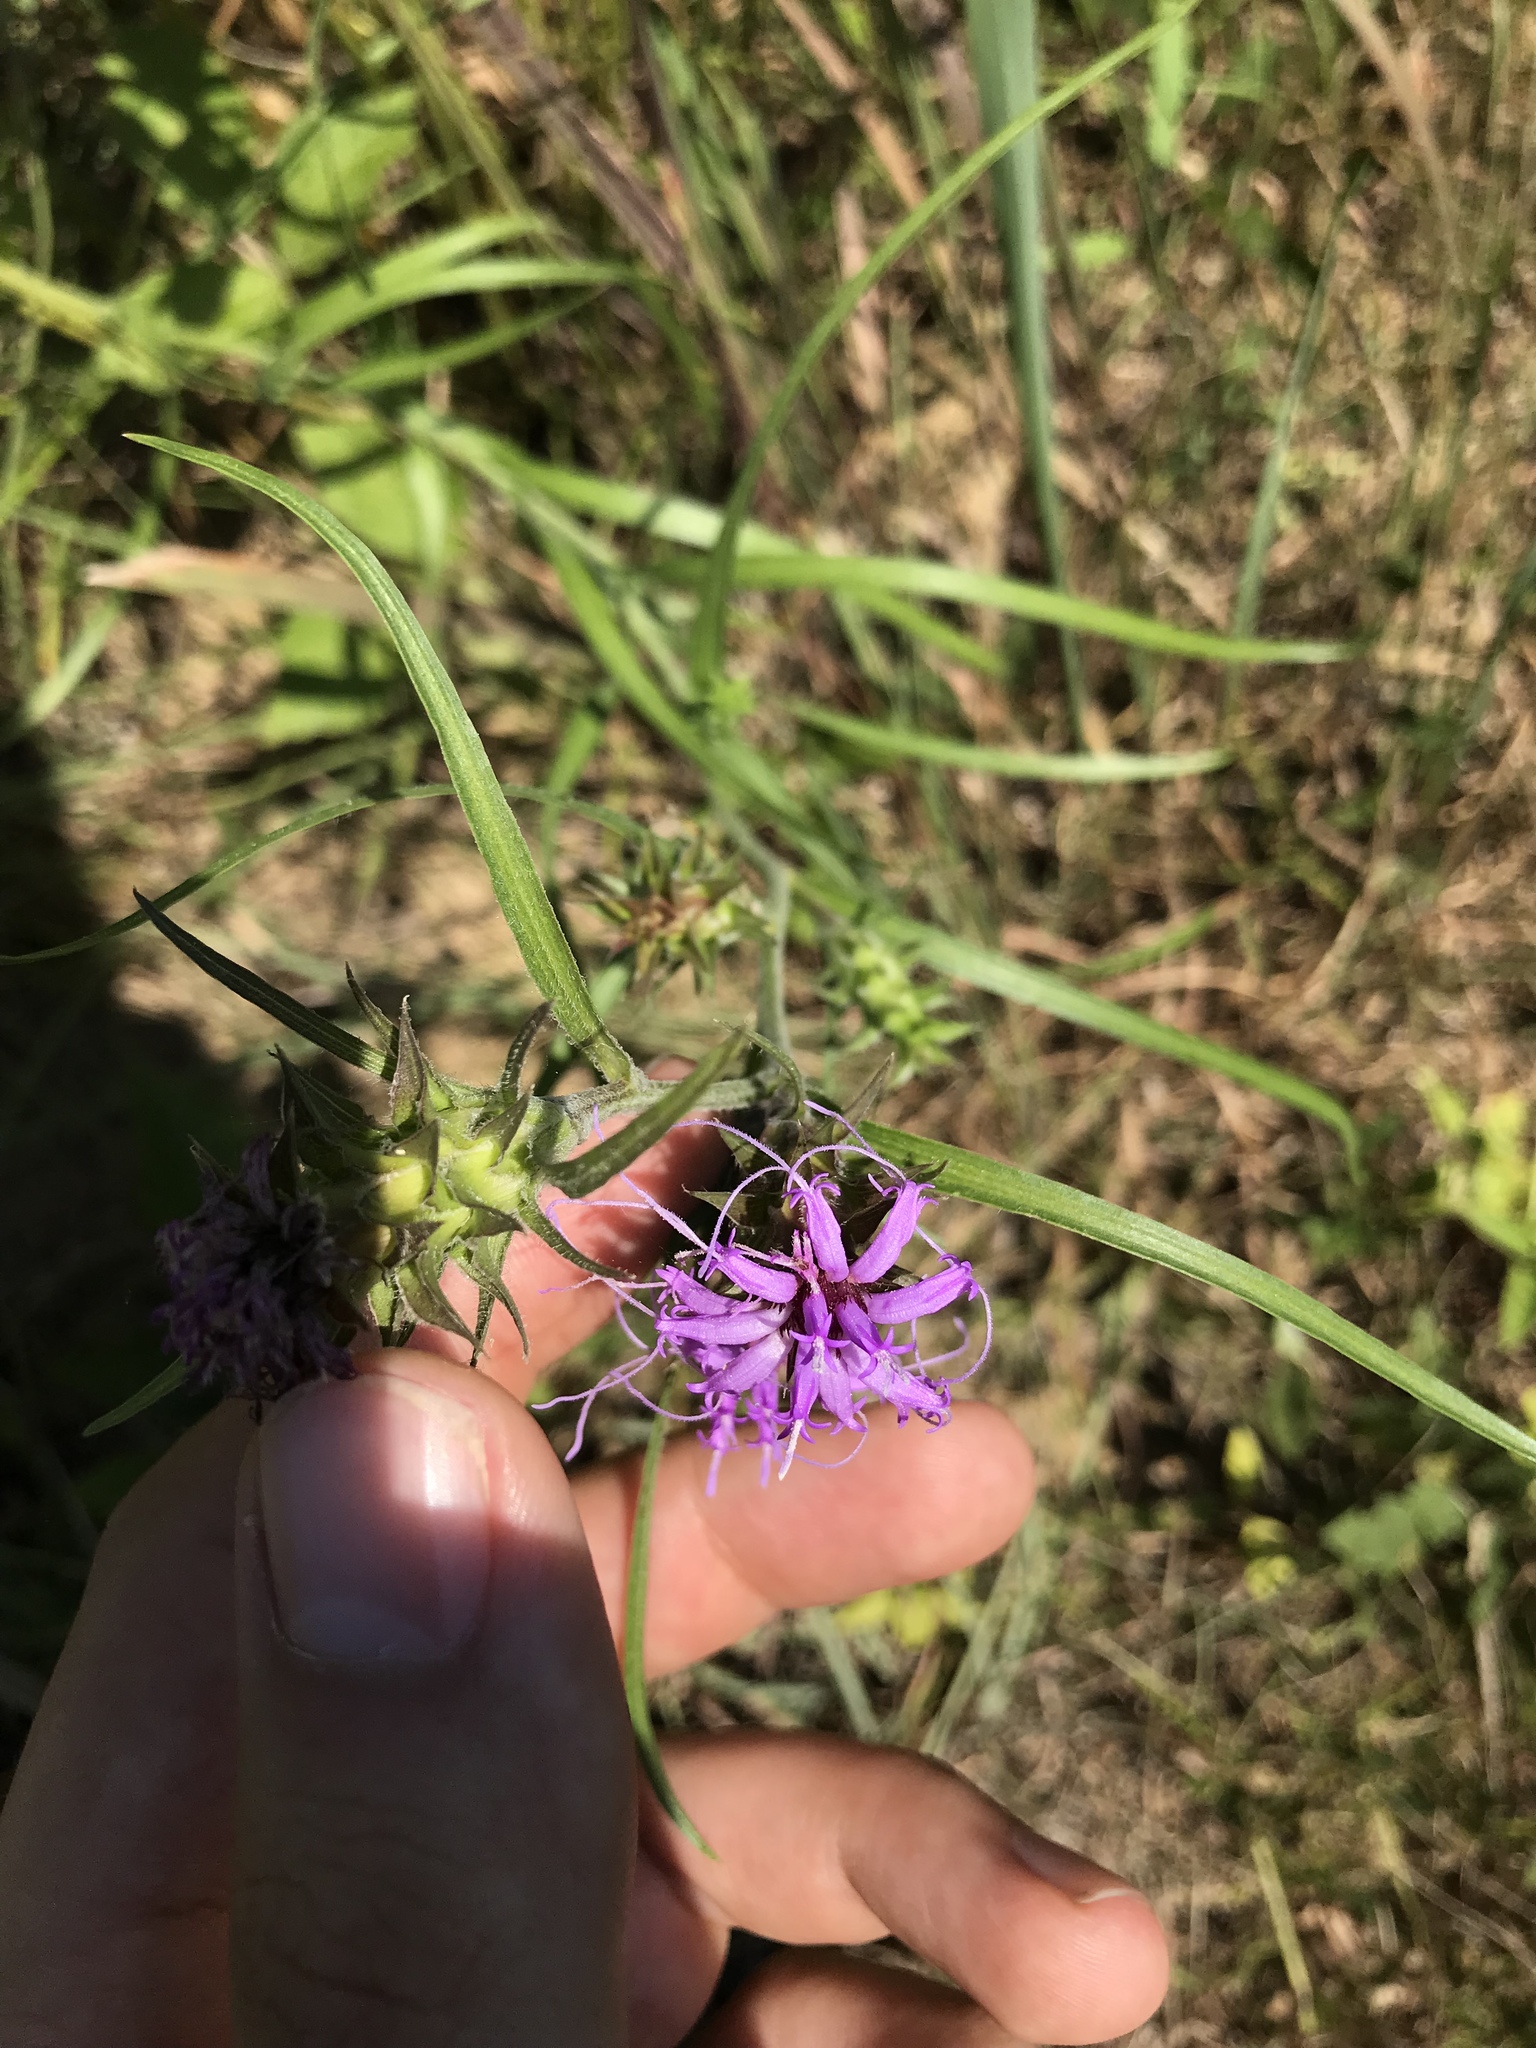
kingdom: Plantae
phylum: Tracheophyta
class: Magnoliopsida
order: Asterales
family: Asteraceae
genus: Liatris
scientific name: Liatris squarrosa
